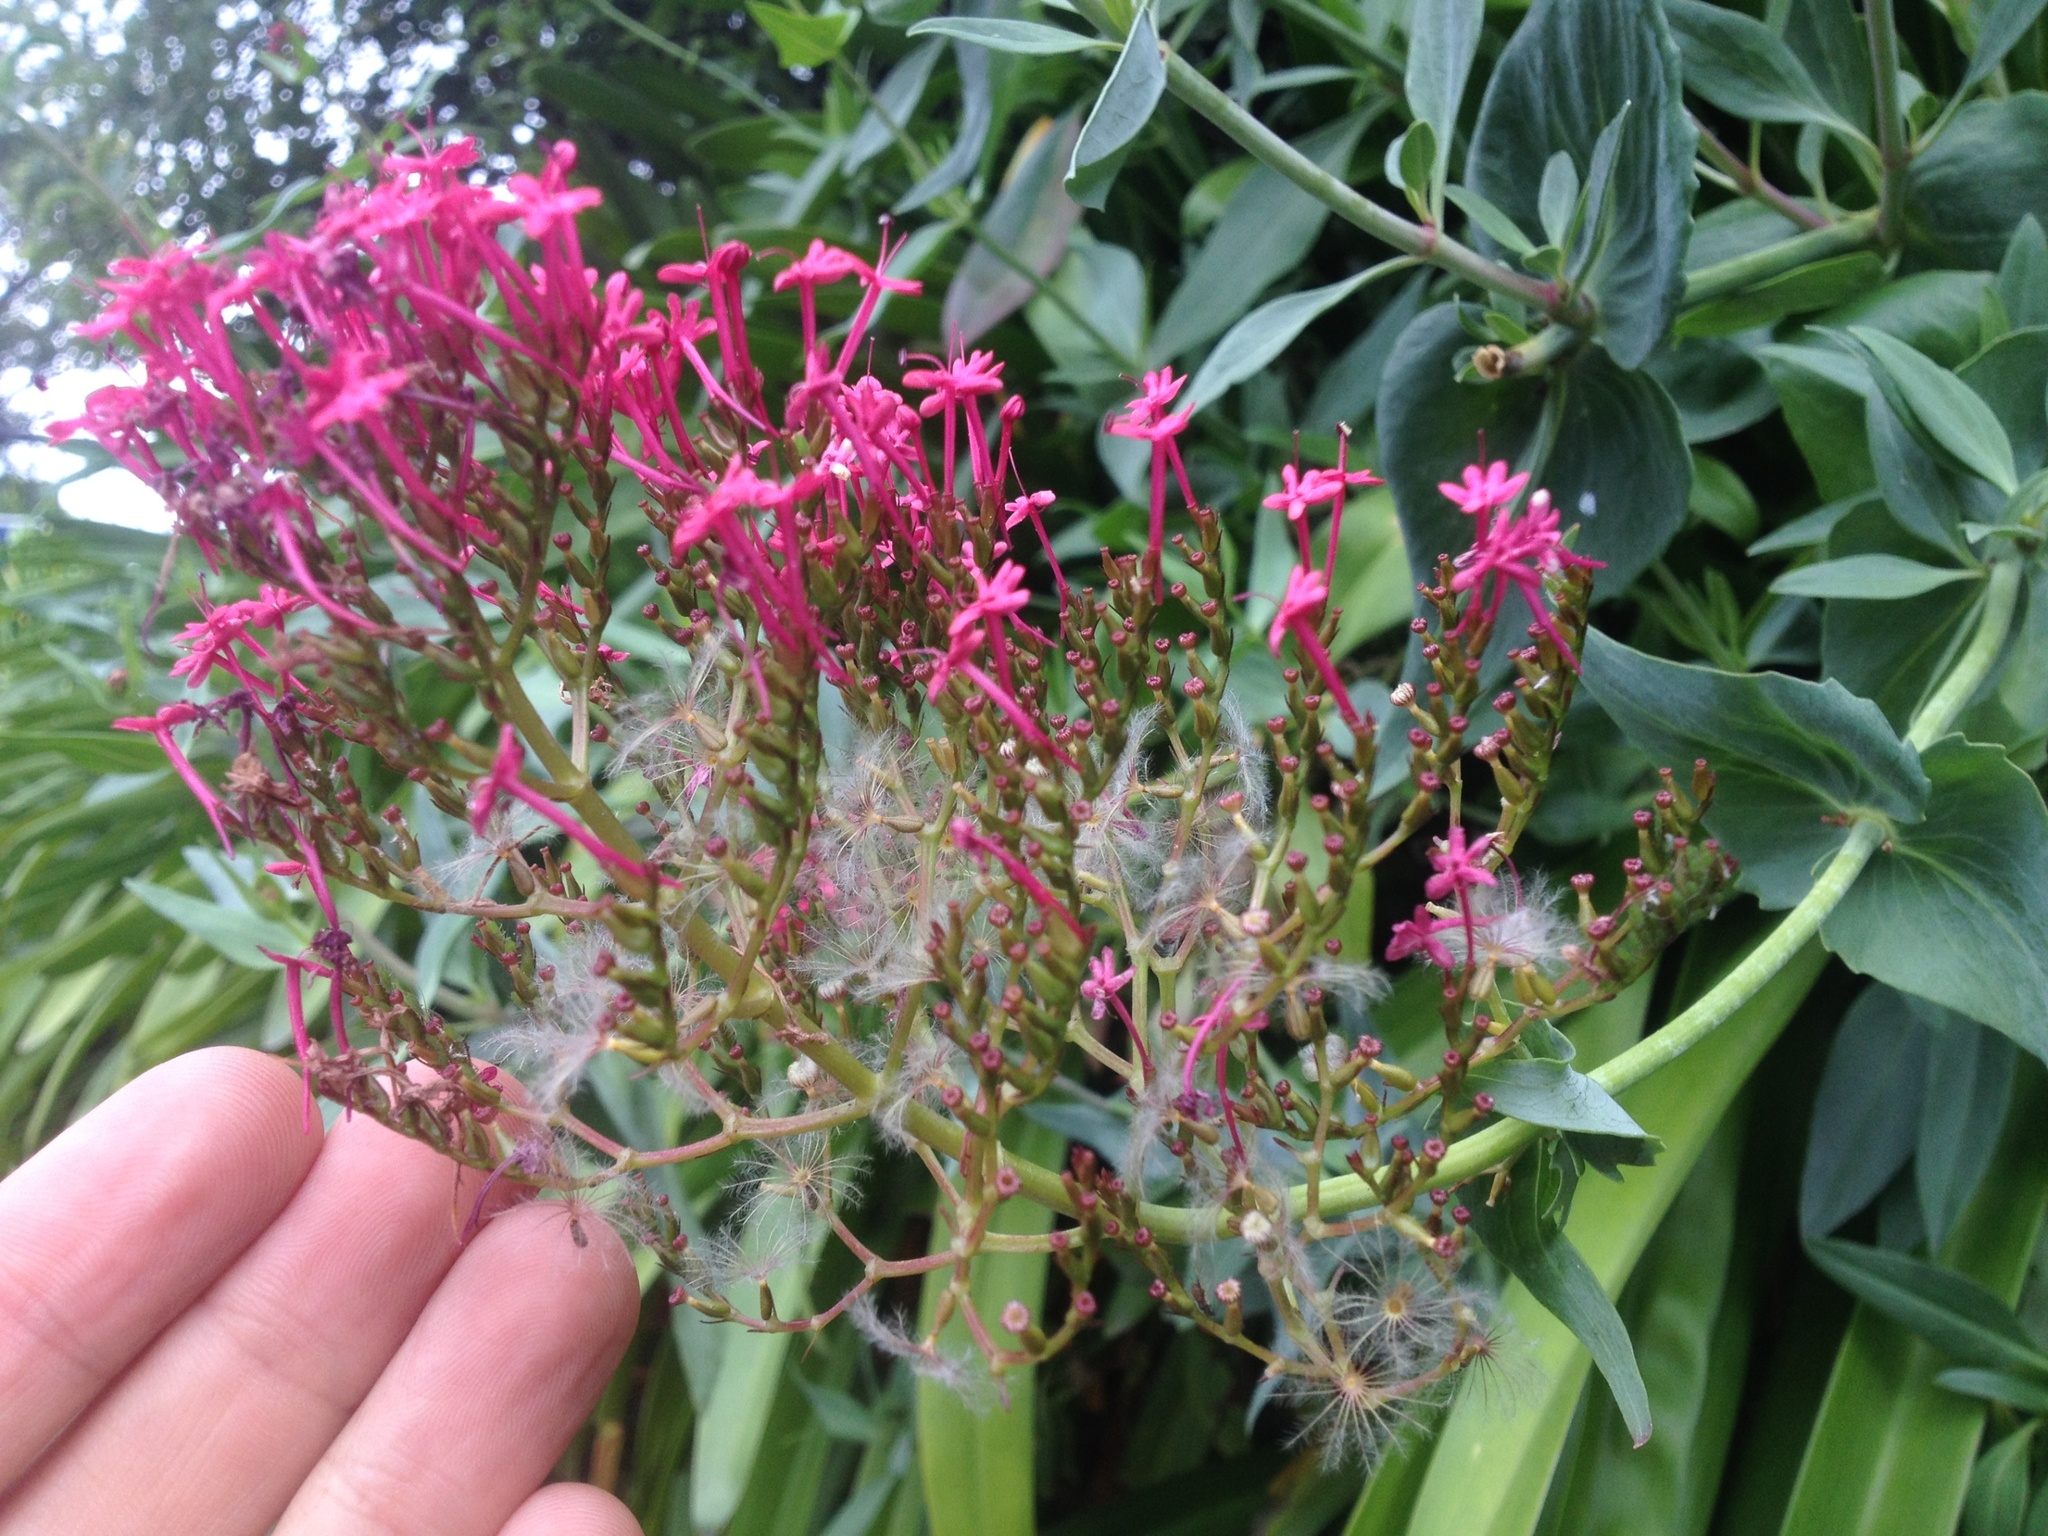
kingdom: Plantae
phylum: Tracheophyta
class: Magnoliopsida
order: Dipsacales
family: Caprifoliaceae
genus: Centranthus
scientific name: Centranthus ruber
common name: Red valerian
